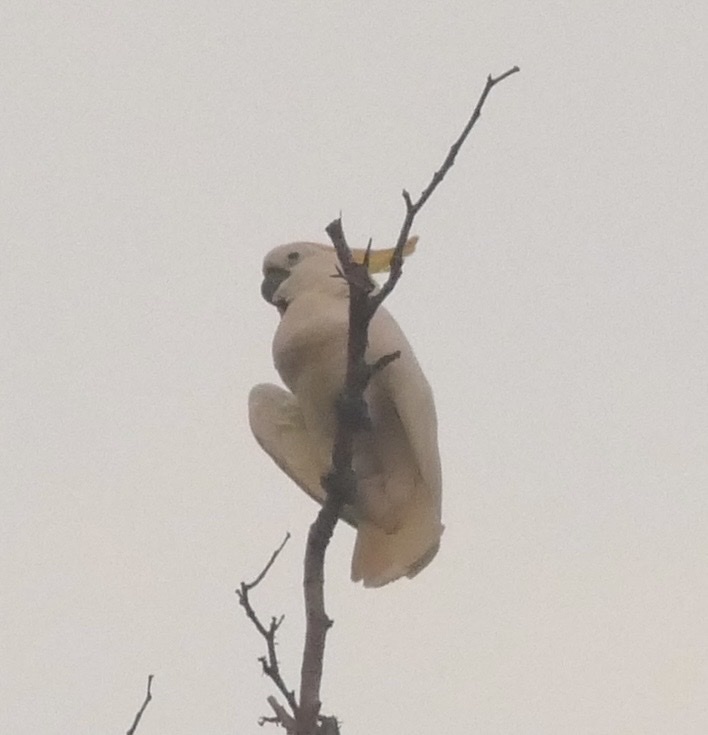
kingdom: Animalia
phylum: Chordata
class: Aves
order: Psittaciformes
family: Psittacidae
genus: Cacatua
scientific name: Cacatua galerita
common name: Sulphur-crested cockatoo
